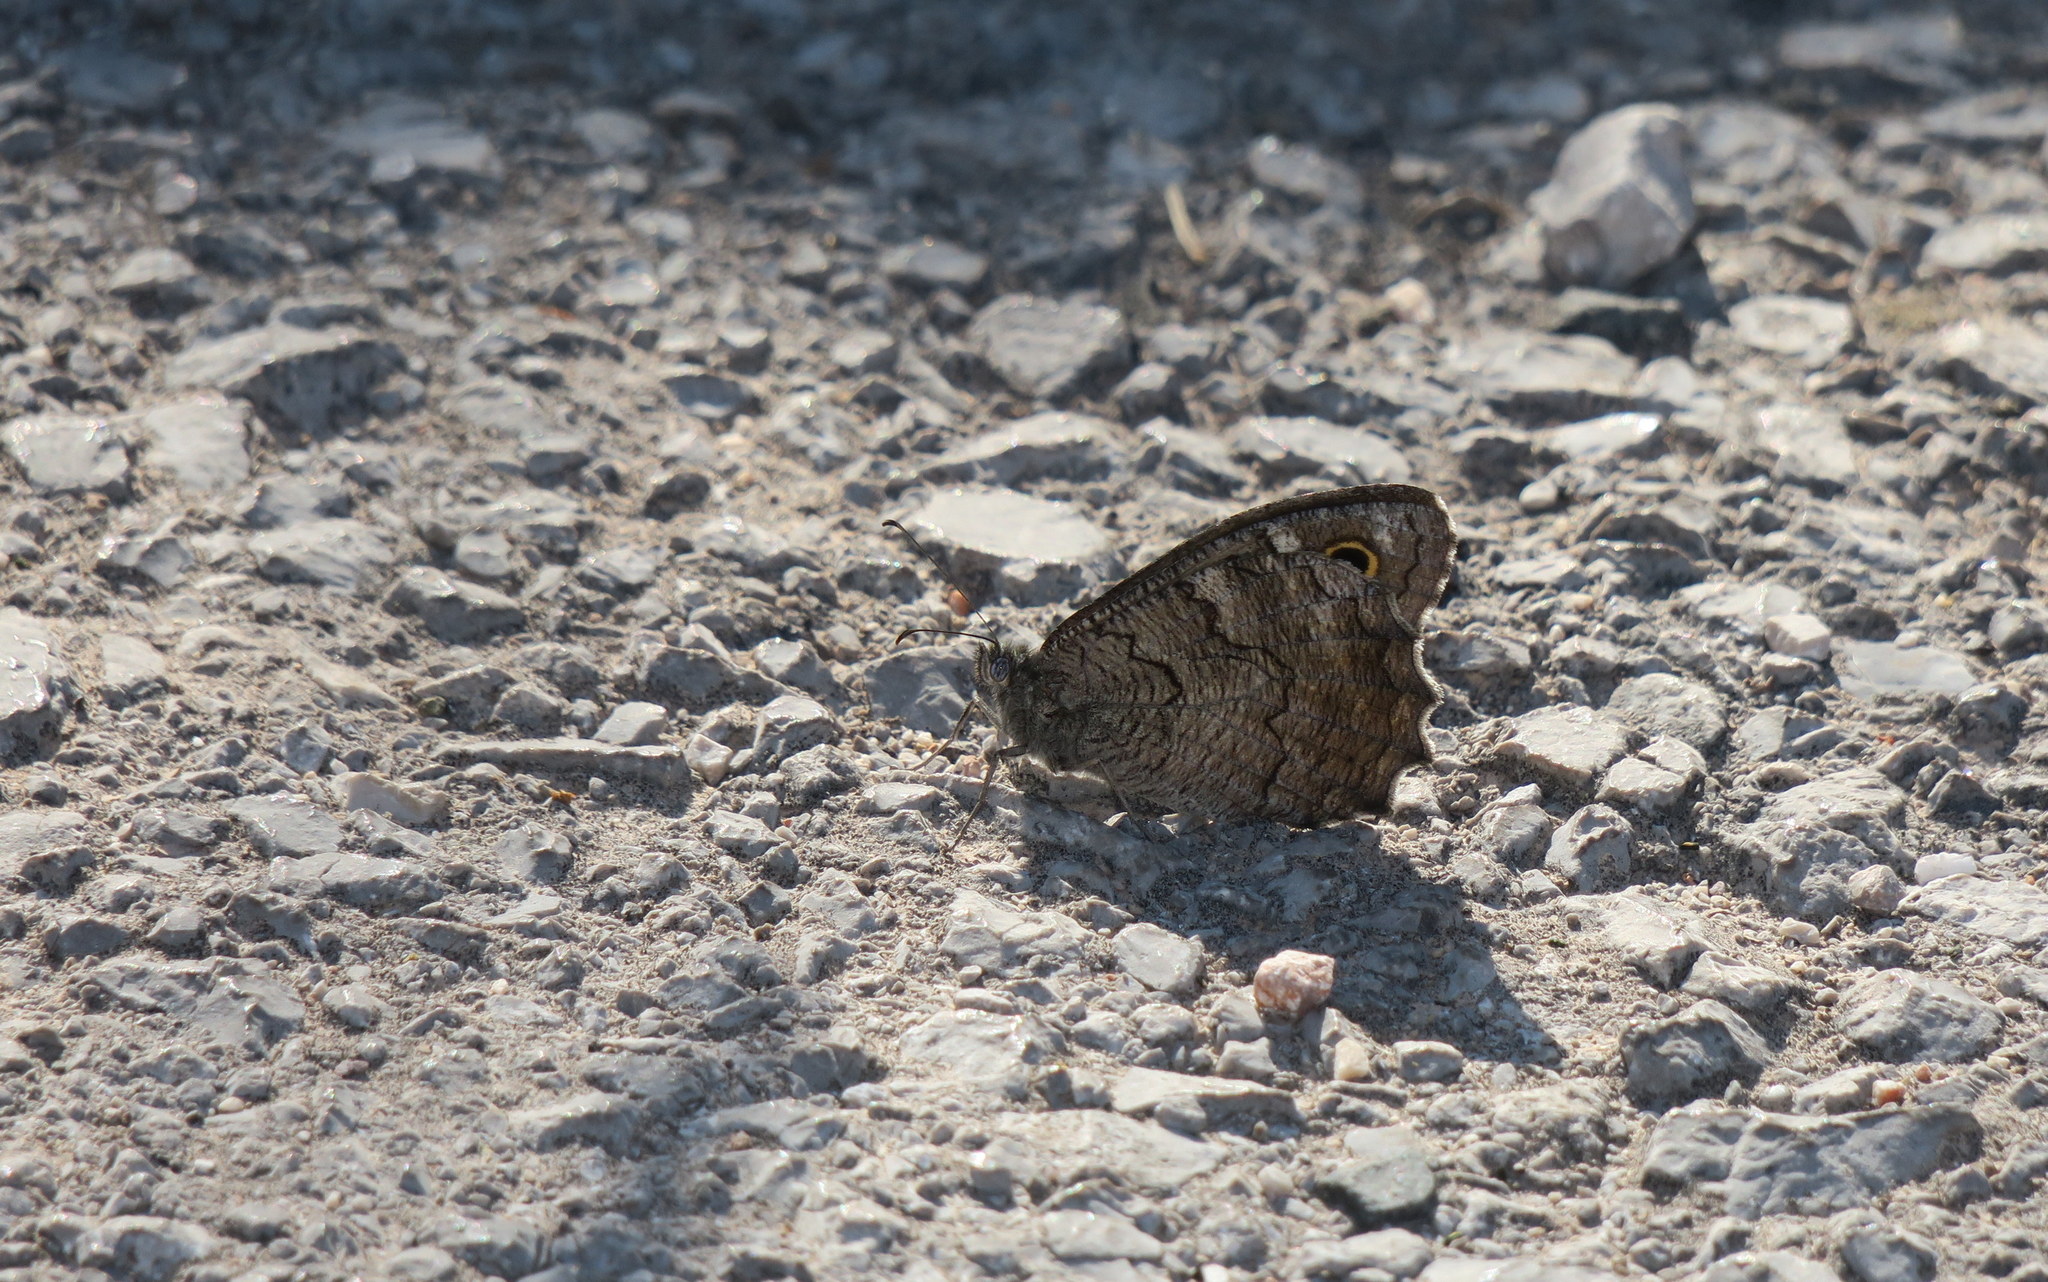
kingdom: Animalia
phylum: Arthropoda
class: Insecta
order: Lepidoptera
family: Nymphalidae
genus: Hipparchia
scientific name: Hipparchia fatua
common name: Freyer's grayling
